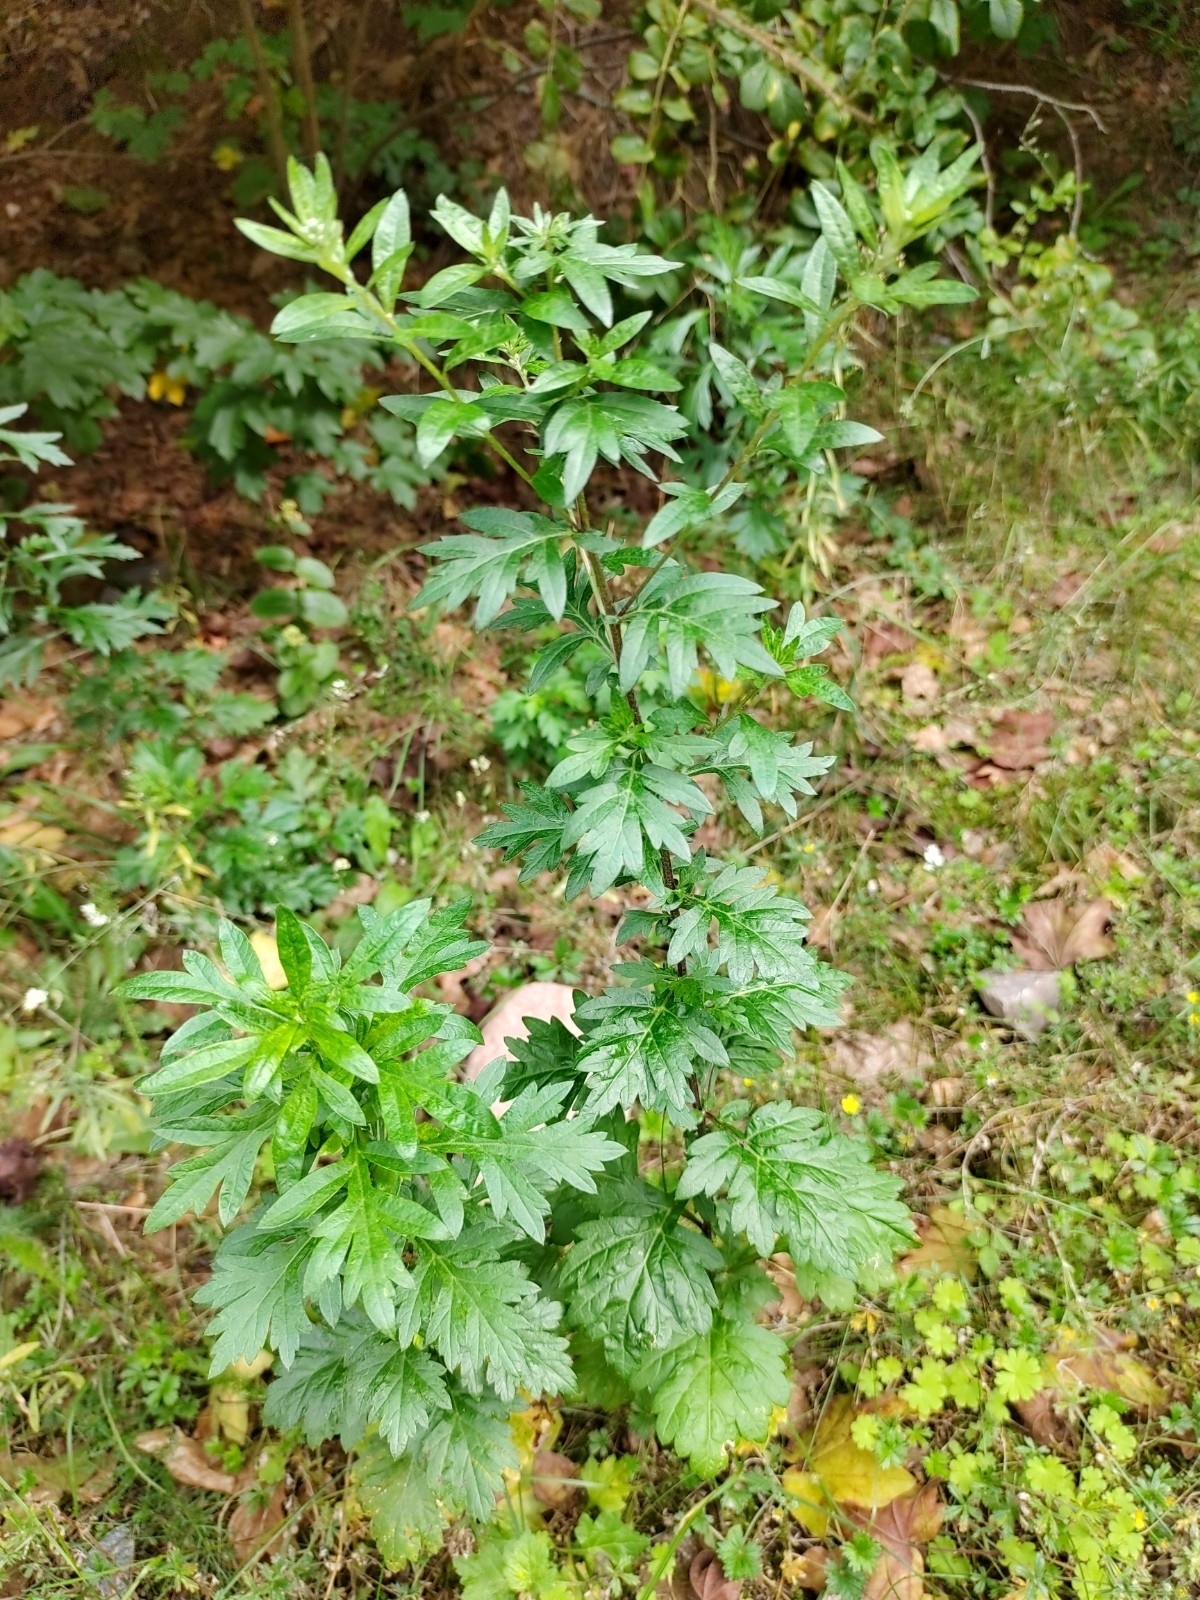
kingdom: Plantae
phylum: Tracheophyta
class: Magnoliopsida
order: Asterales
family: Asteraceae
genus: Artemisia
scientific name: Artemisia vulgaris
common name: Mugwort
